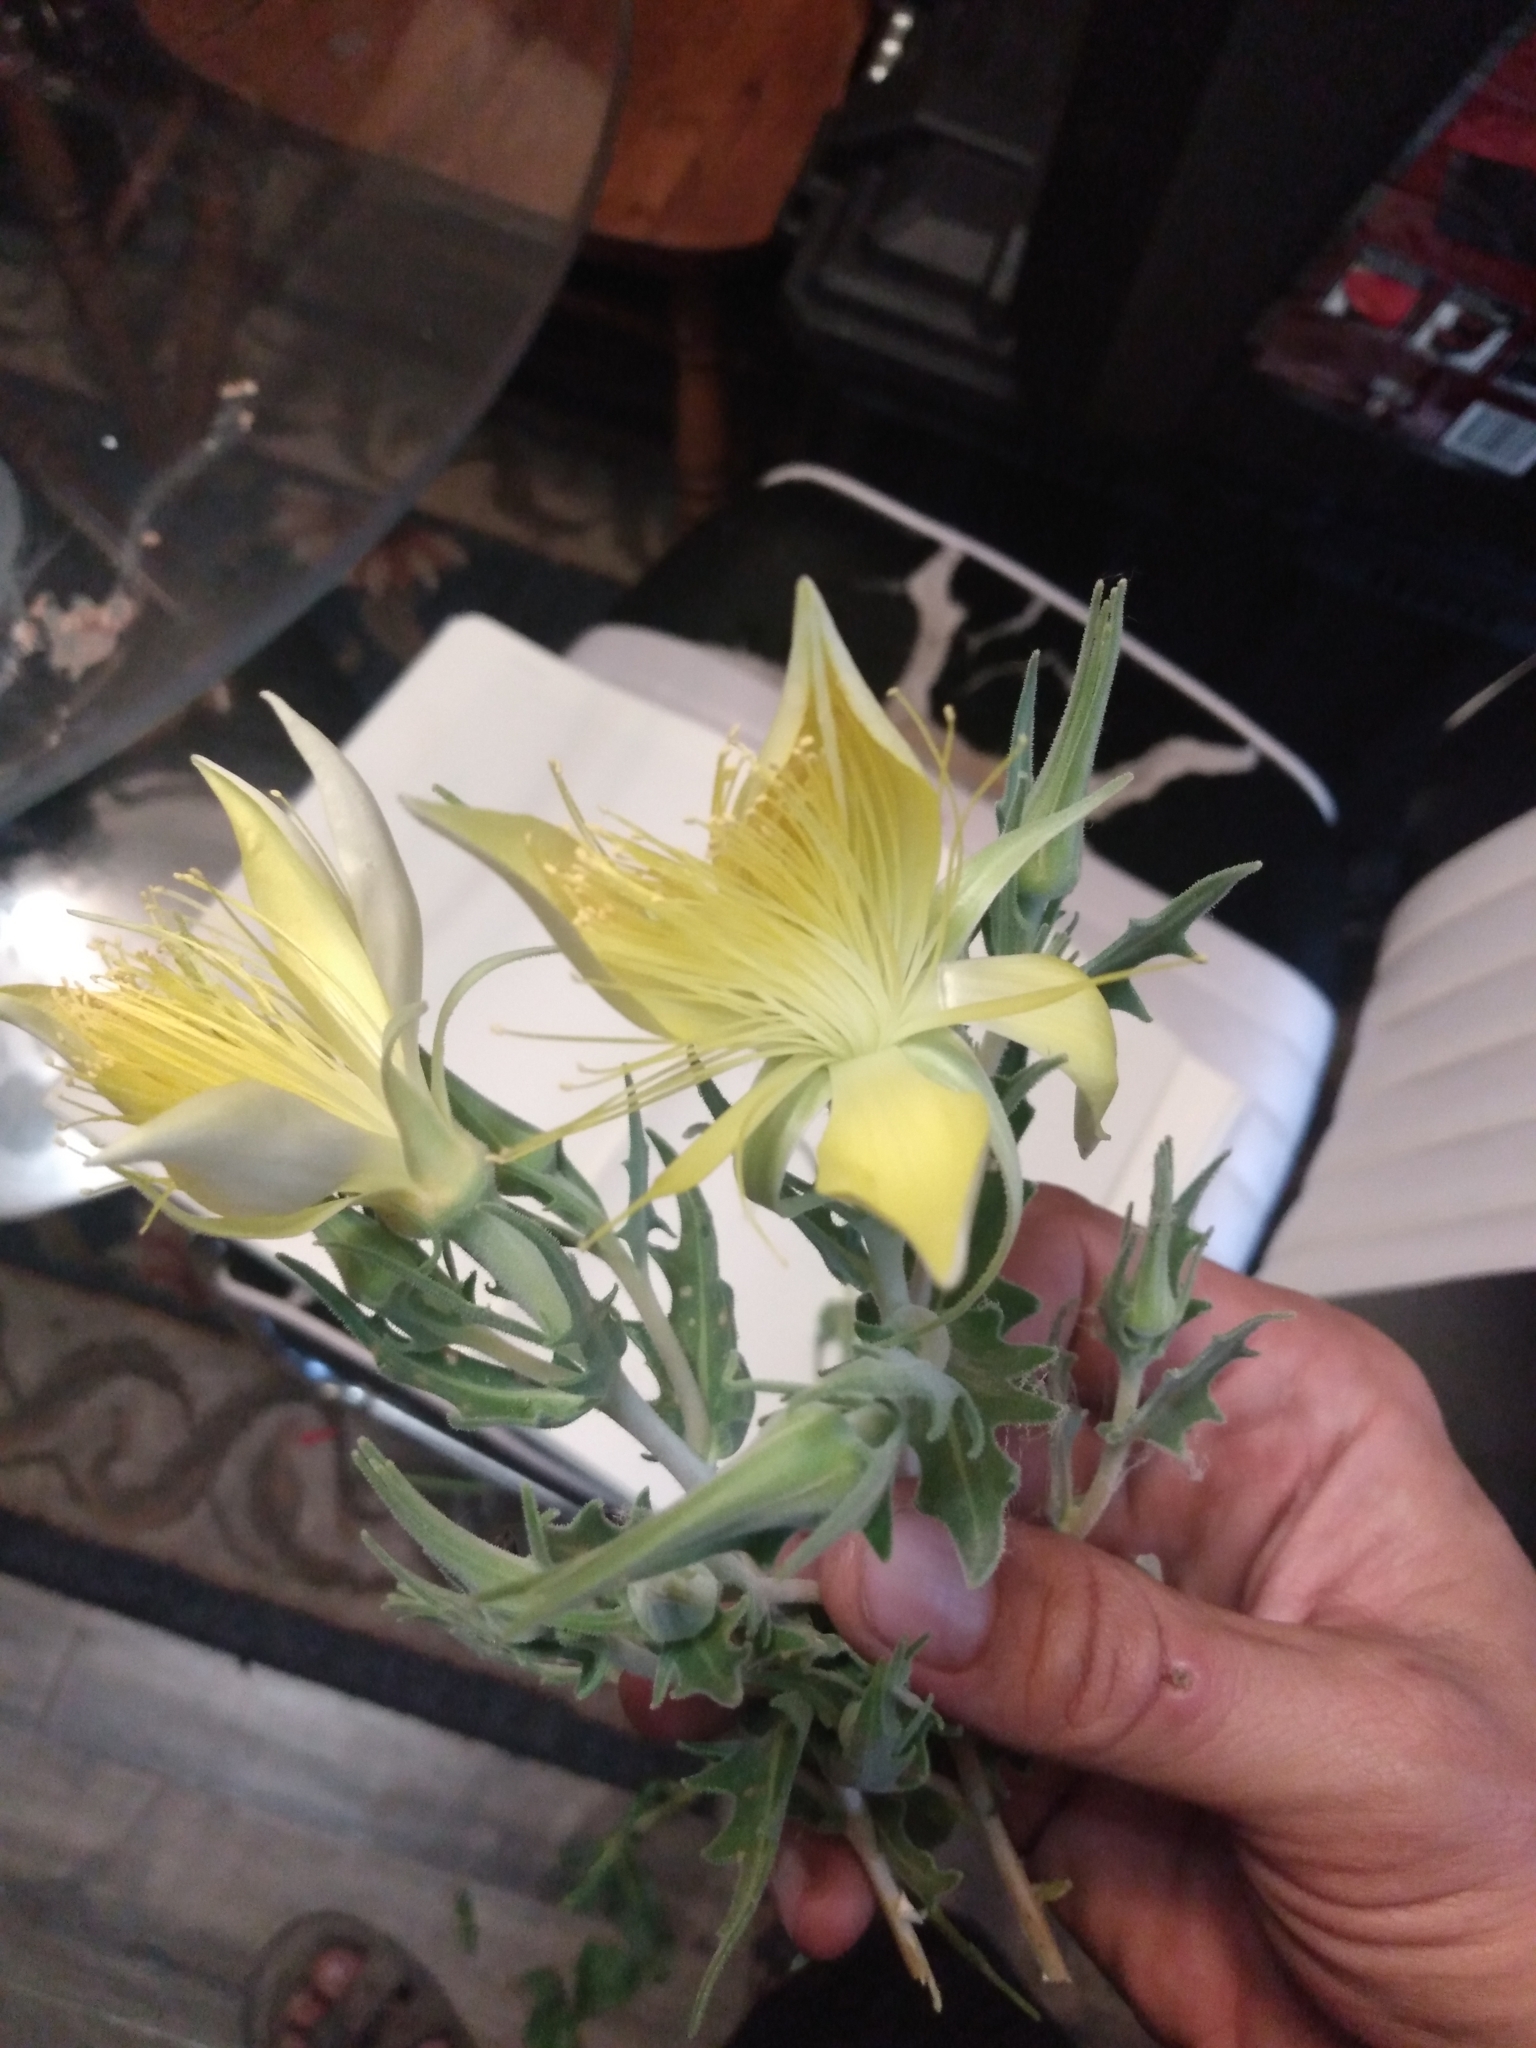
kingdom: Plantae
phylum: Tracheophyta
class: Magnoliopsida
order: Cornales
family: Loasaceae
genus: Mentzelia
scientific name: Mentzelia laevicaulis
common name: Smooth-stem blazingstar
